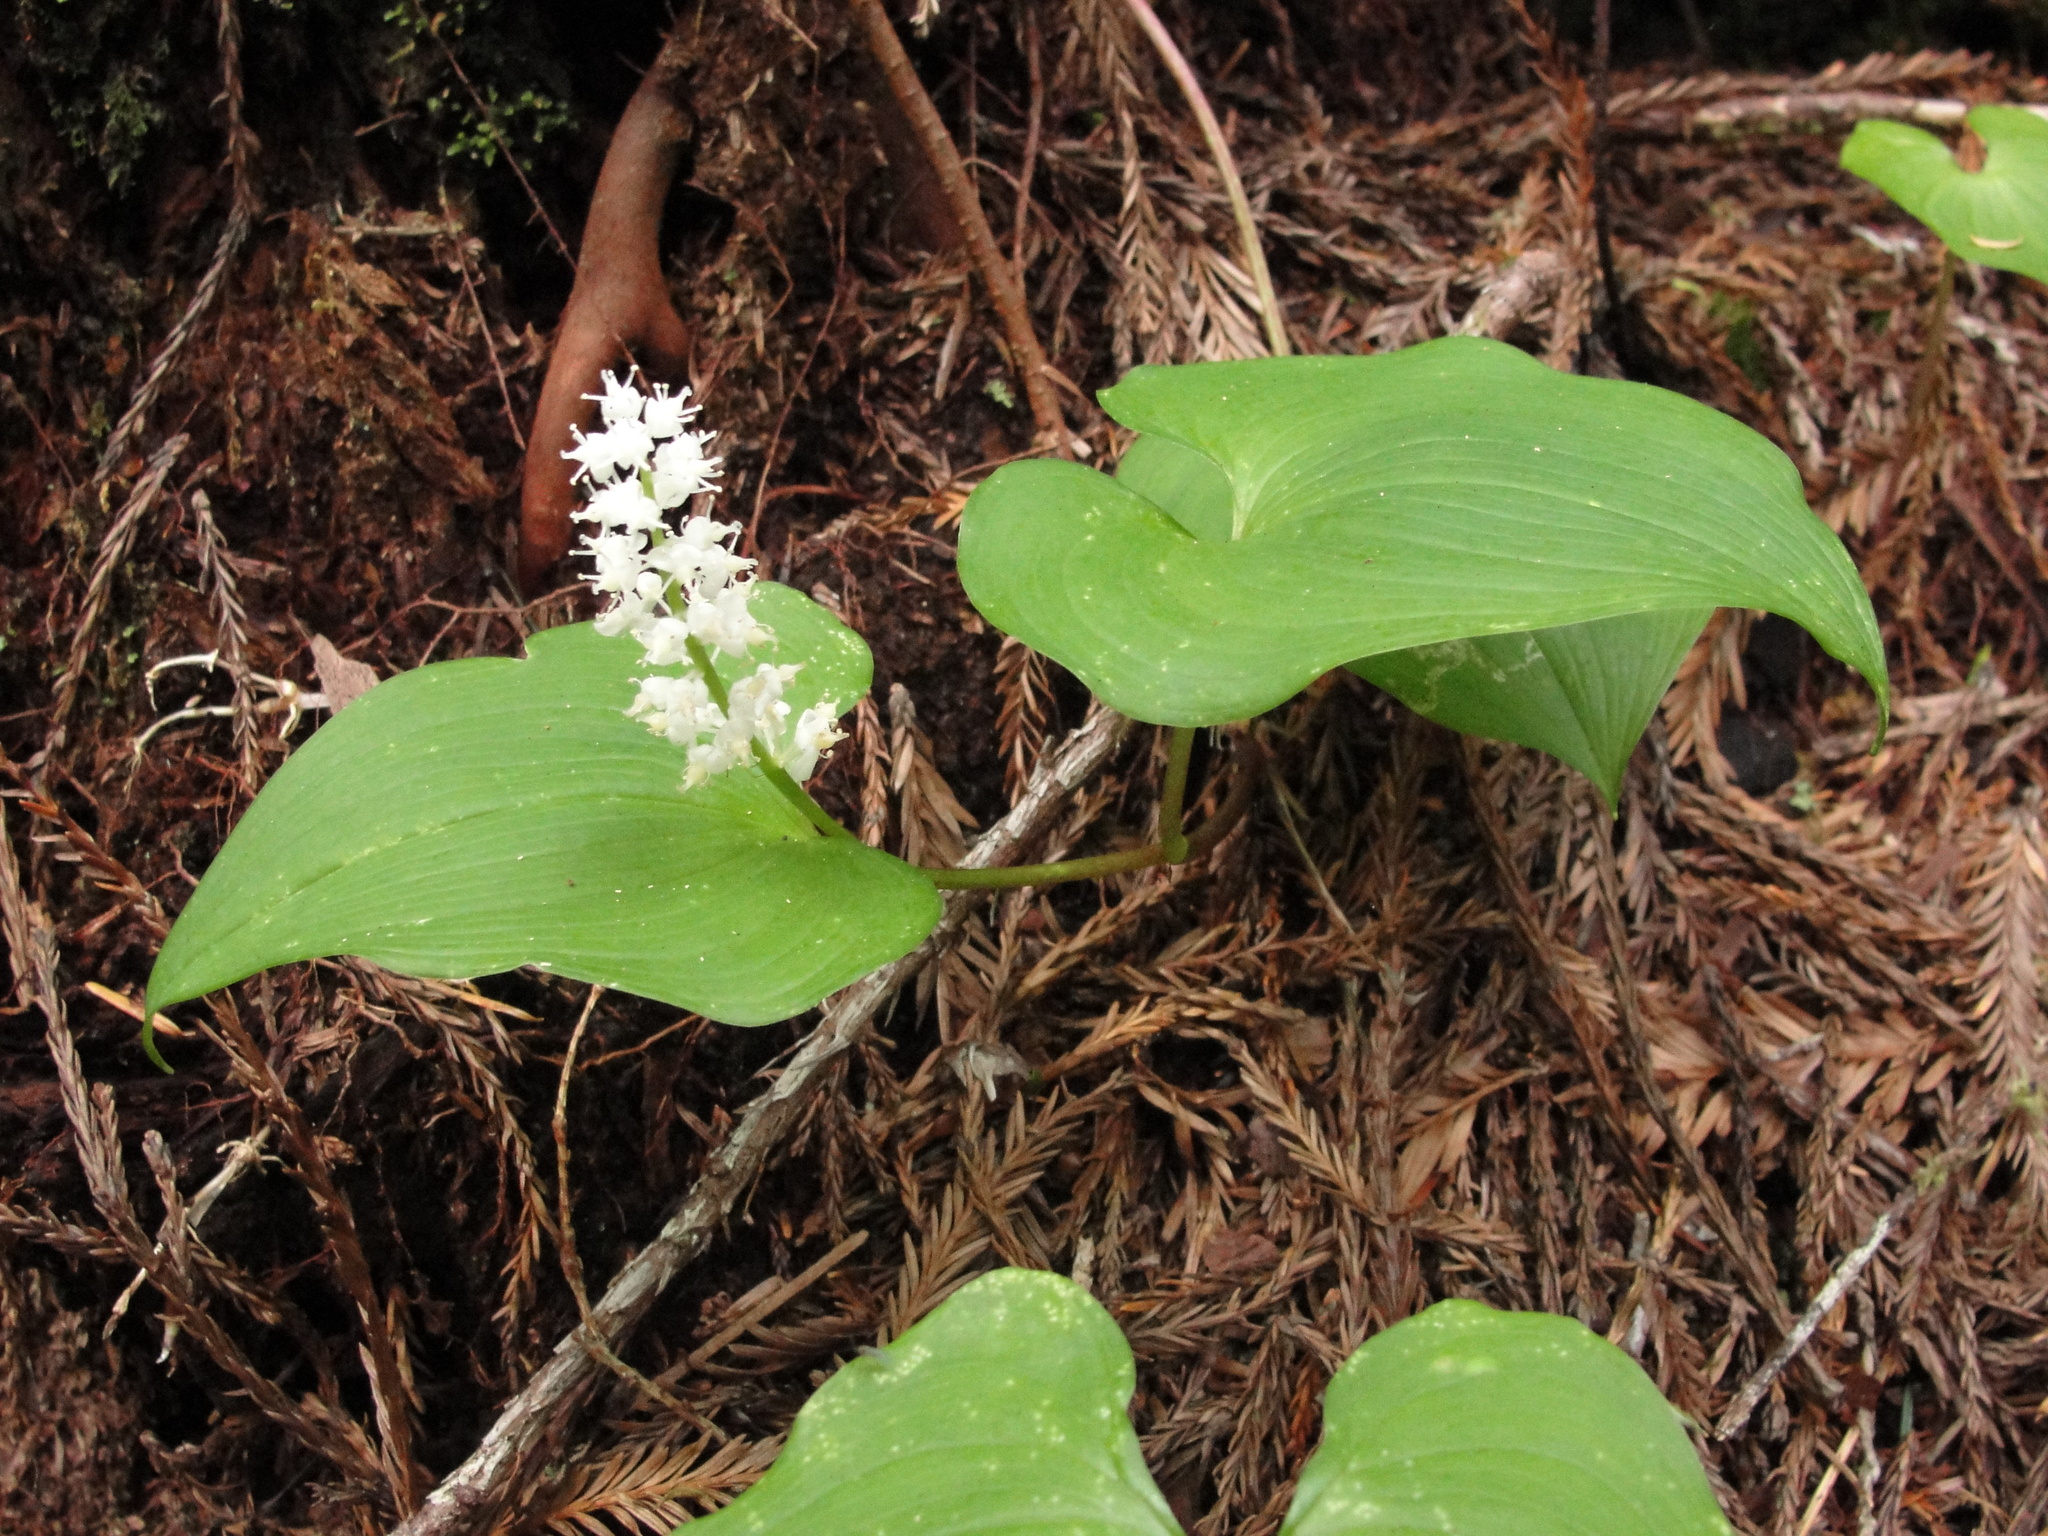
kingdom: Plantae
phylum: Tracheophyta
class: Liliopsida
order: Asparagales
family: Asparagaceae
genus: Maianthemum
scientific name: Maianthemum dilatatum
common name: False lily-of-the-valley
